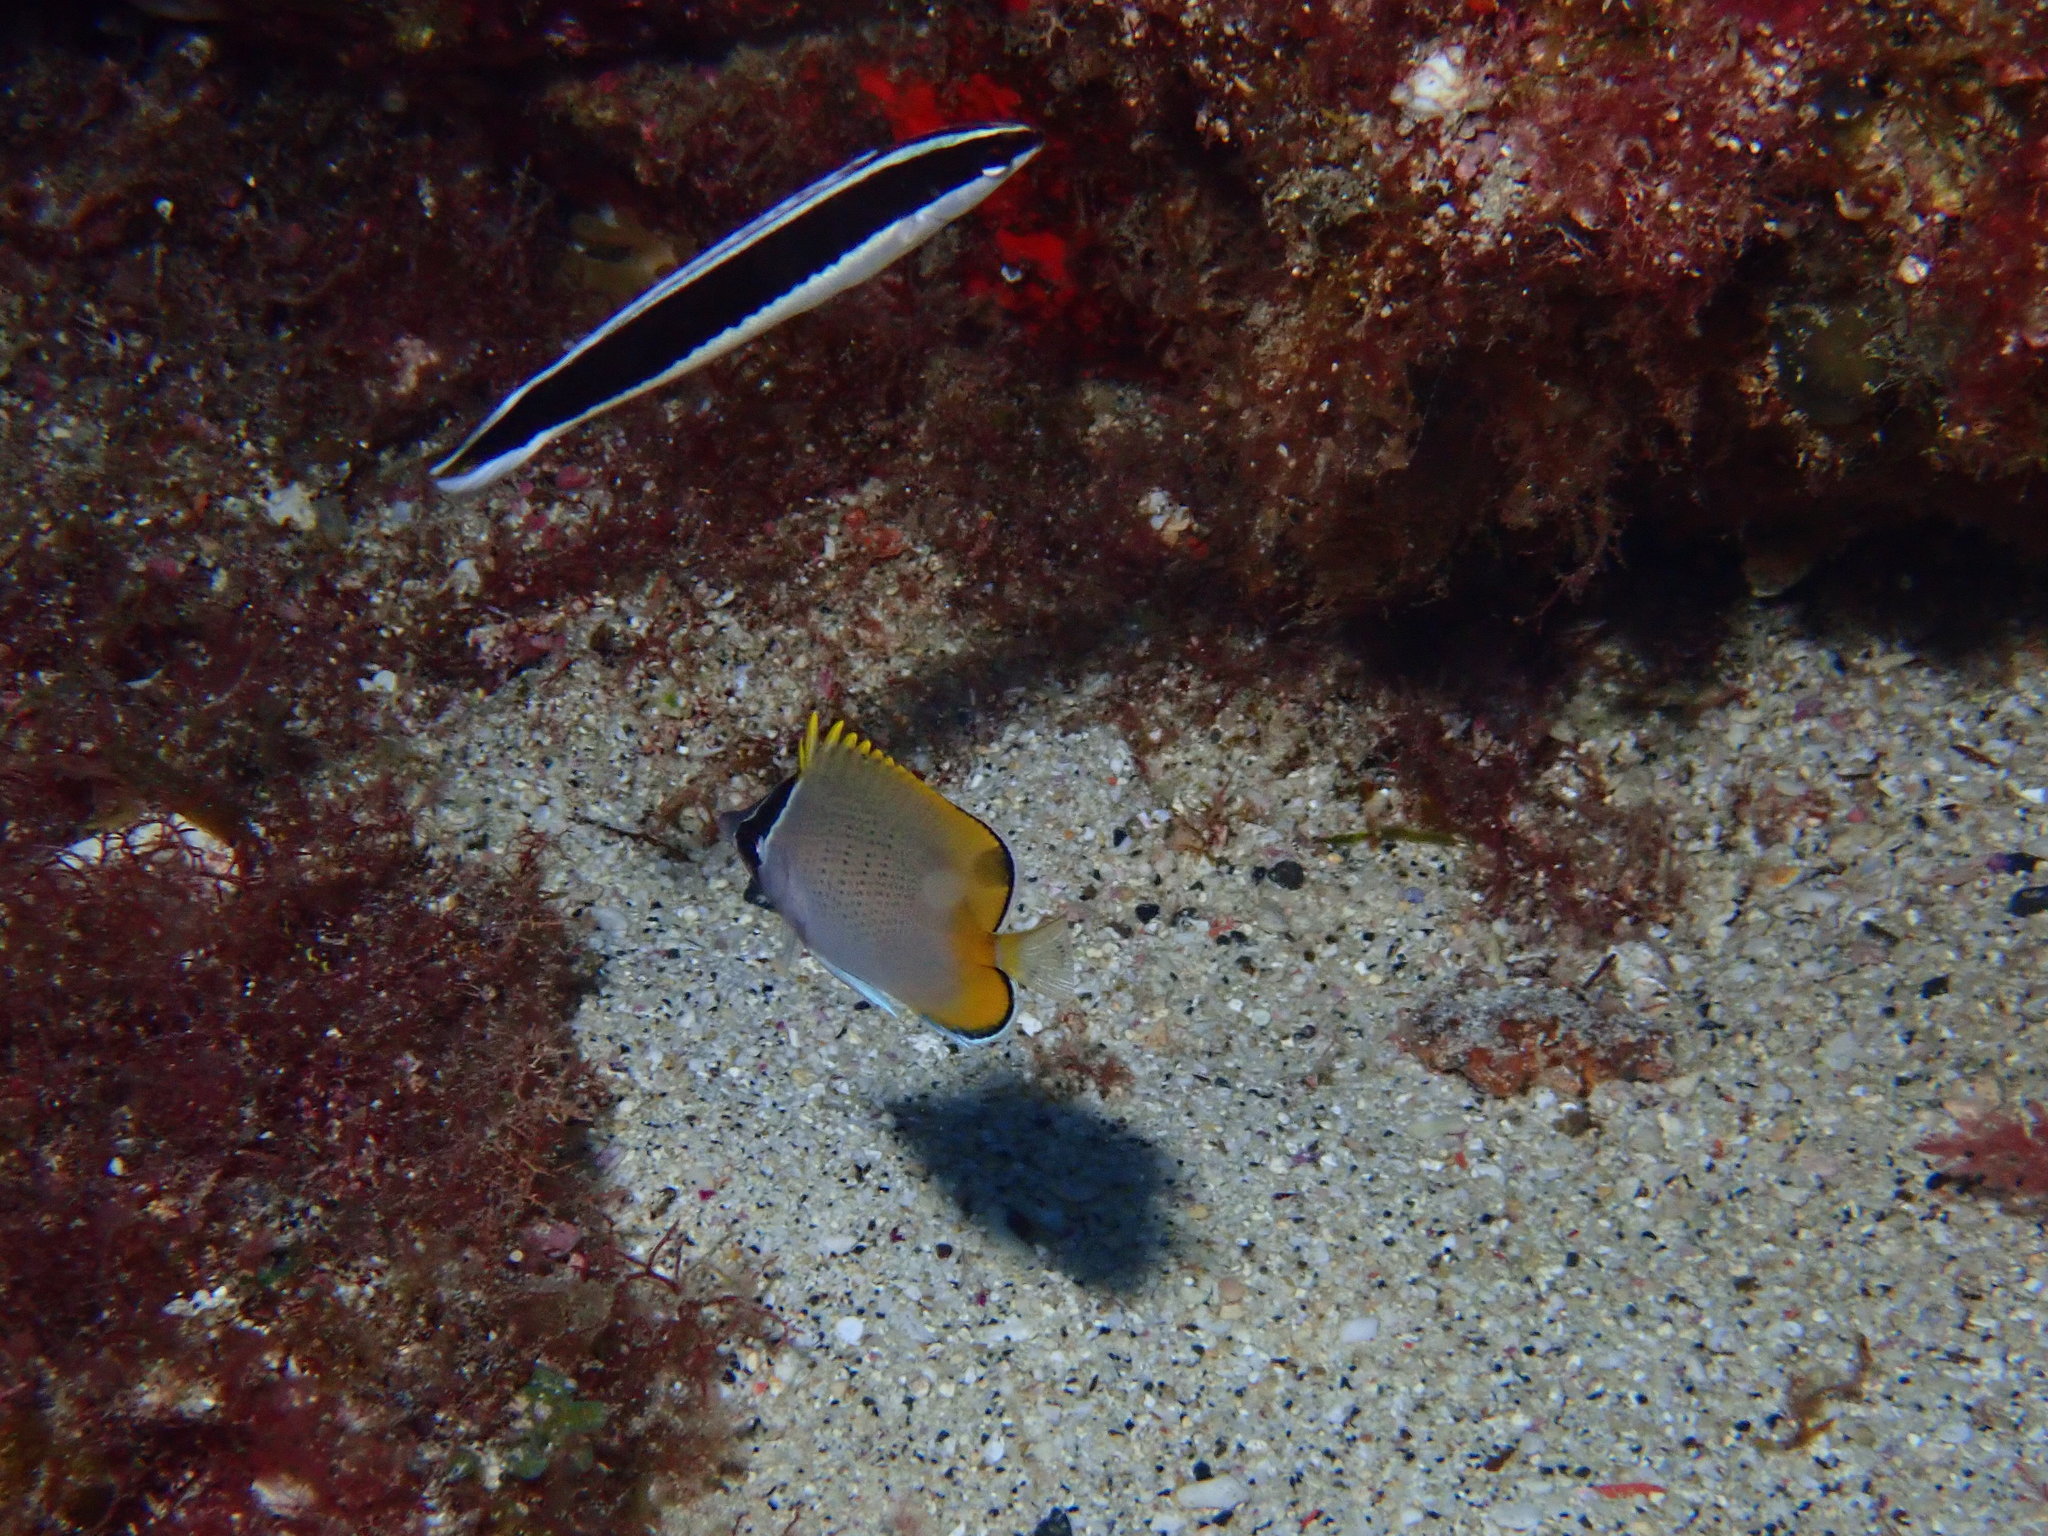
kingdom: Animalia
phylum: Chordata
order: Perciformes
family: Chaetodontidae
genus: Chaetodon
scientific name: Chaetodon guentheri
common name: Gunther's butterflyfish
